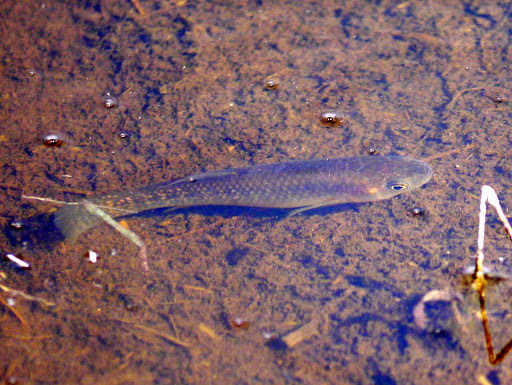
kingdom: Animalia
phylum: Chordata
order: Cyprinodontiformes
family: Fundulidae
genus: Fundulus
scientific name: Fundulus heteroclitus
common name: Mummichog
